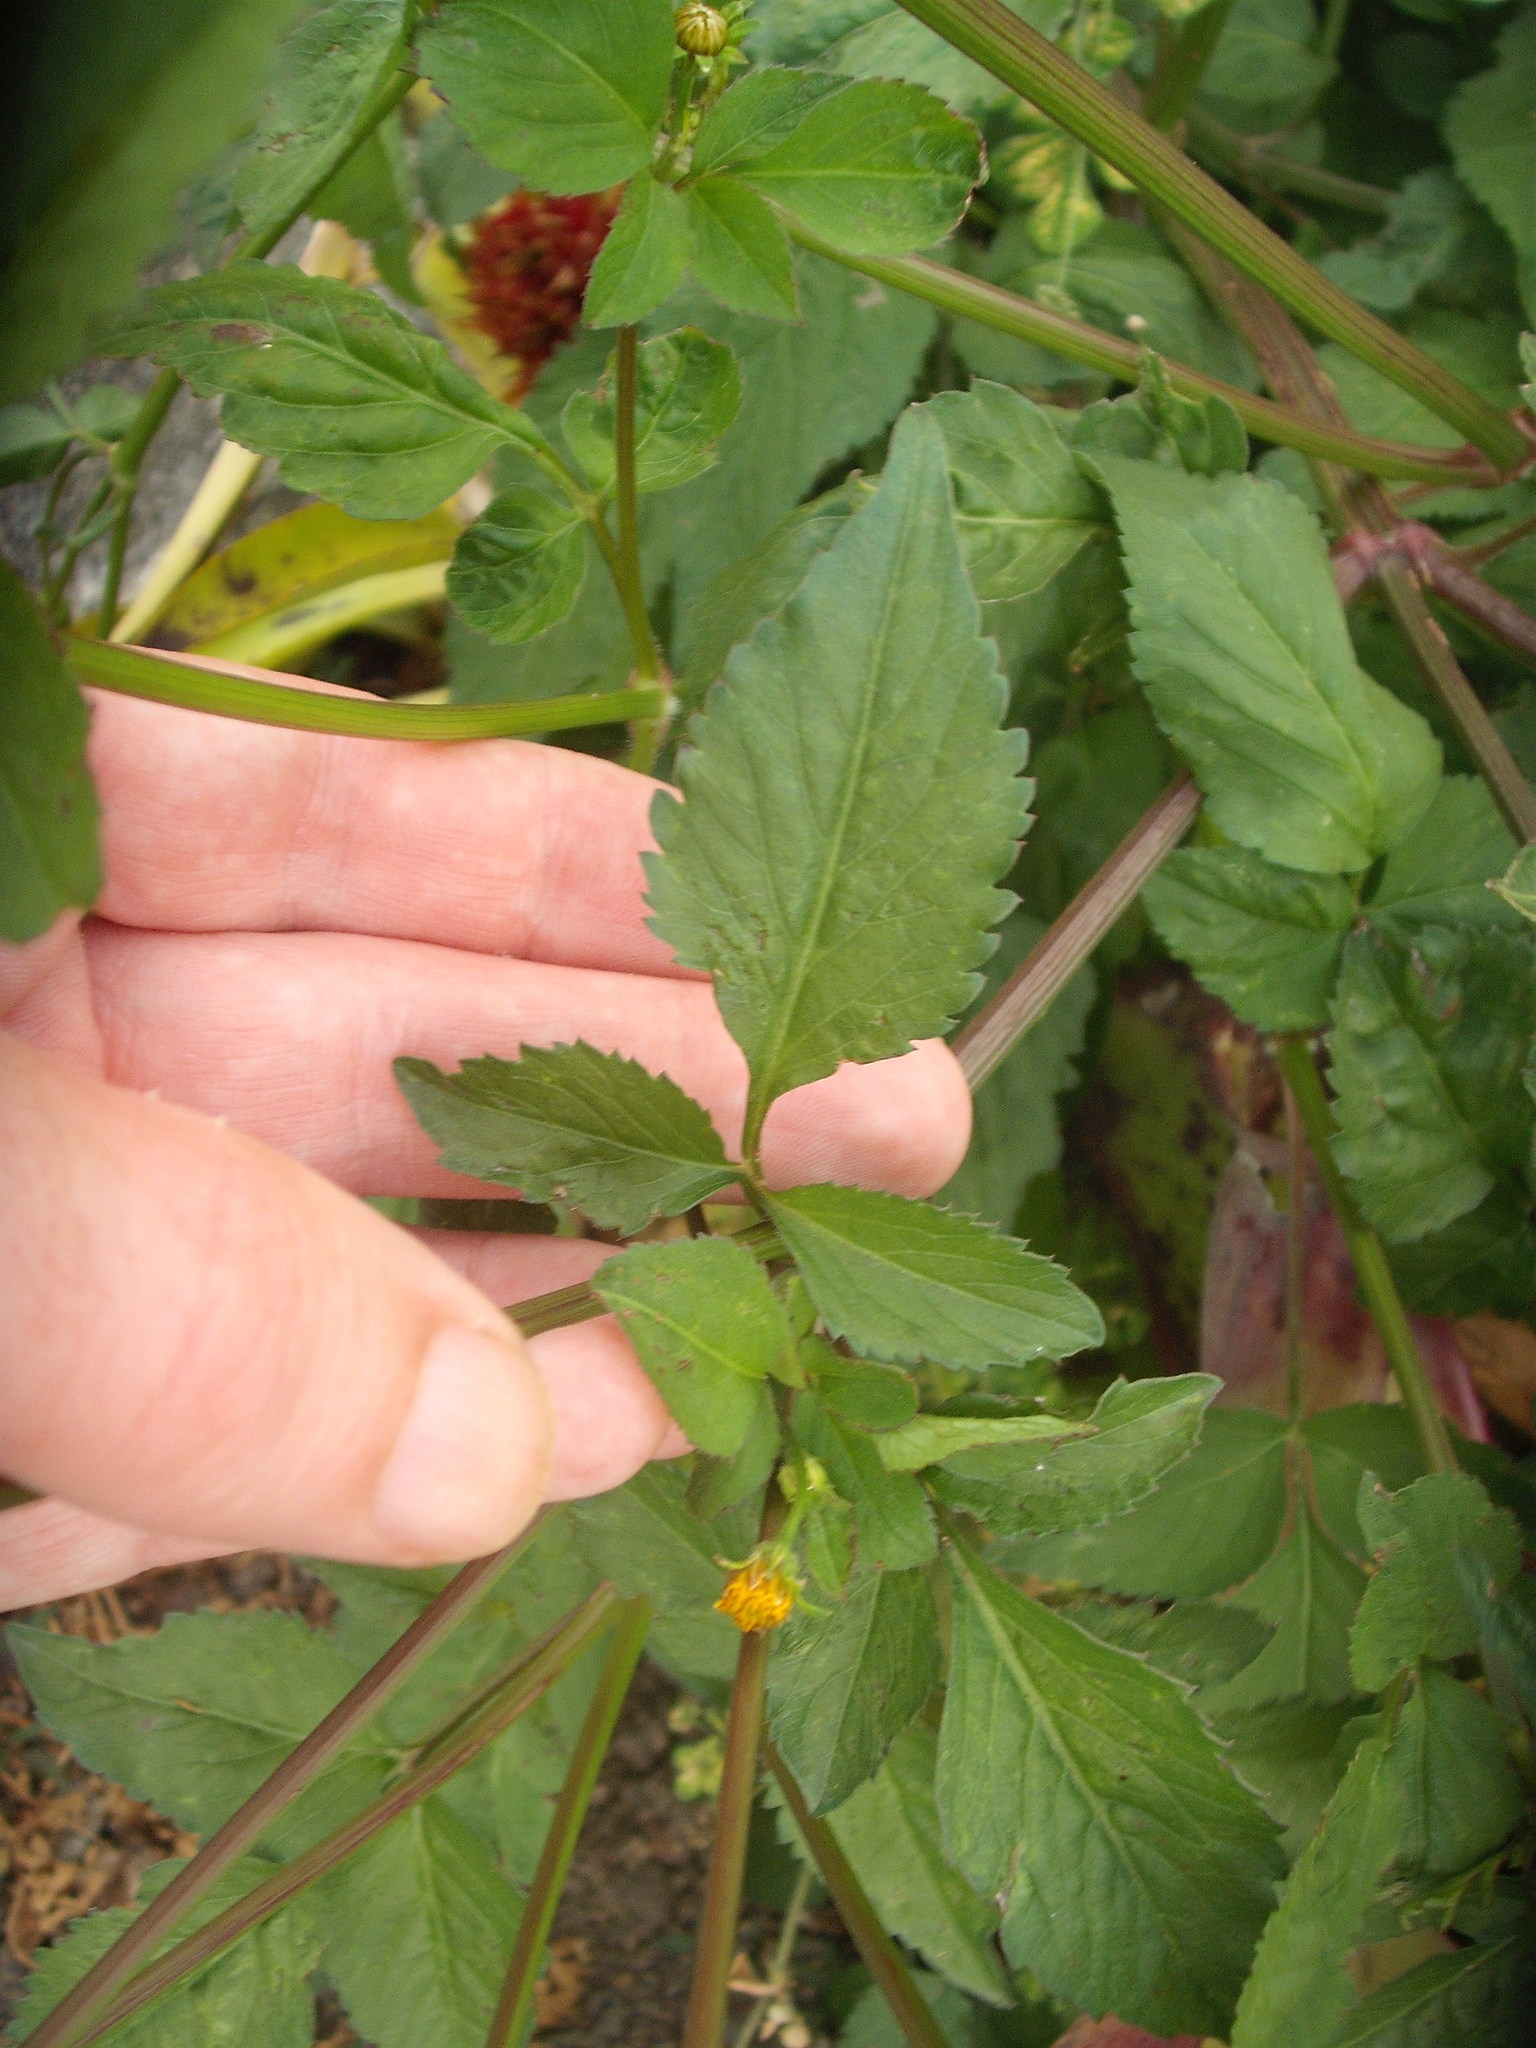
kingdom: Plantae
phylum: Tracheophyta
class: Magnoliopsida
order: Asterales
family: Asteraceae
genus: Bidens
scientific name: Bidens pilosa
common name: Black-jack
